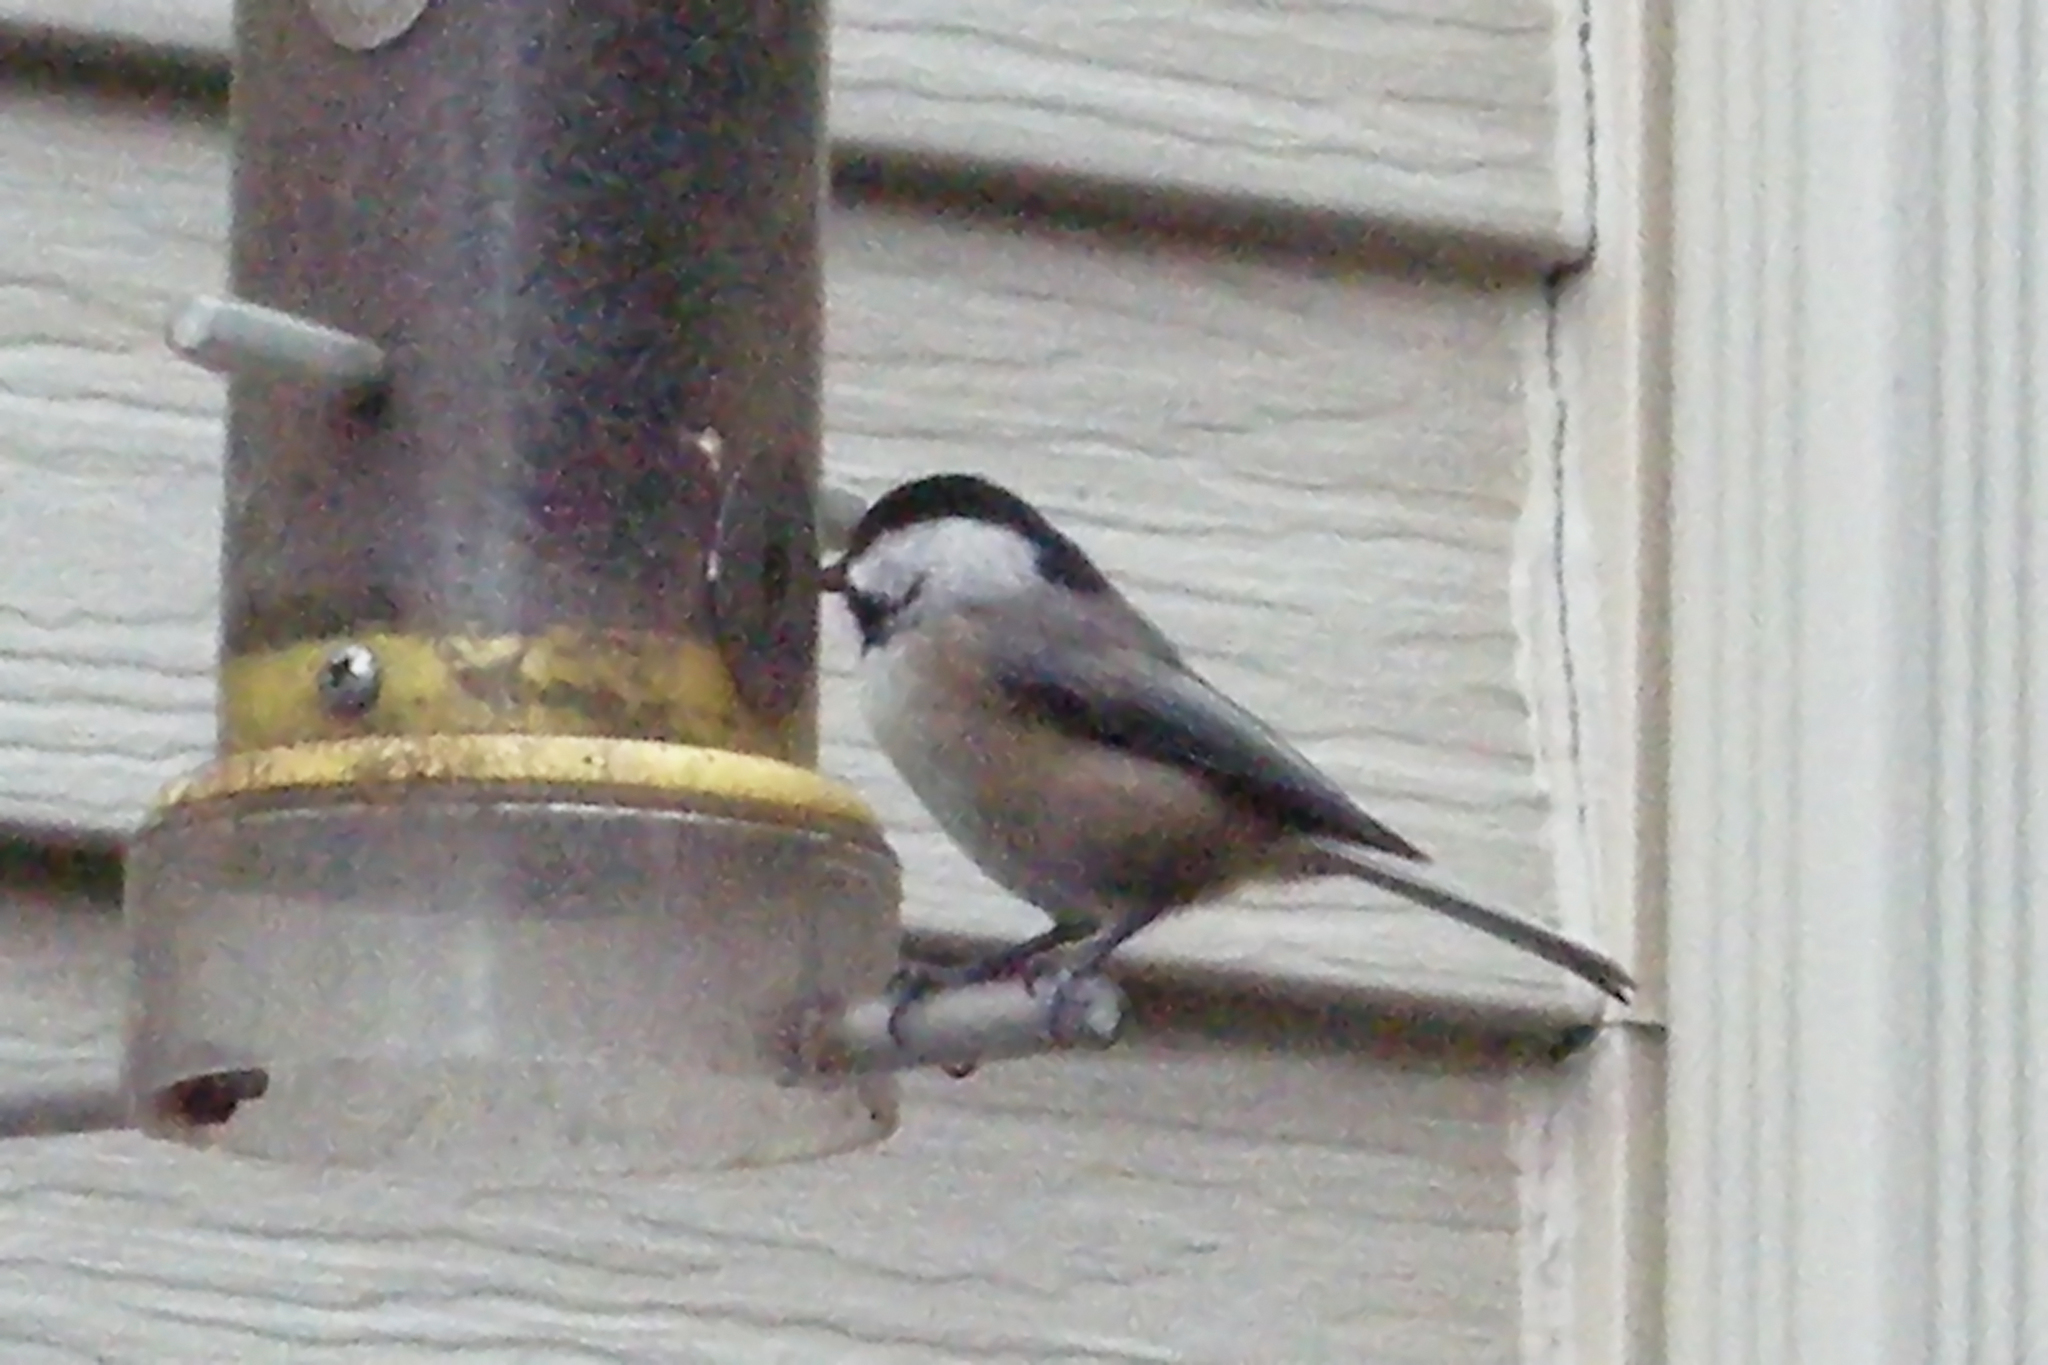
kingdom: Animalia
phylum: Chordata
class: Aves
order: Passeriformes
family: Paridae
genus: Poecile
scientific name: Poecile carolinensis
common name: Carolina chickadee
